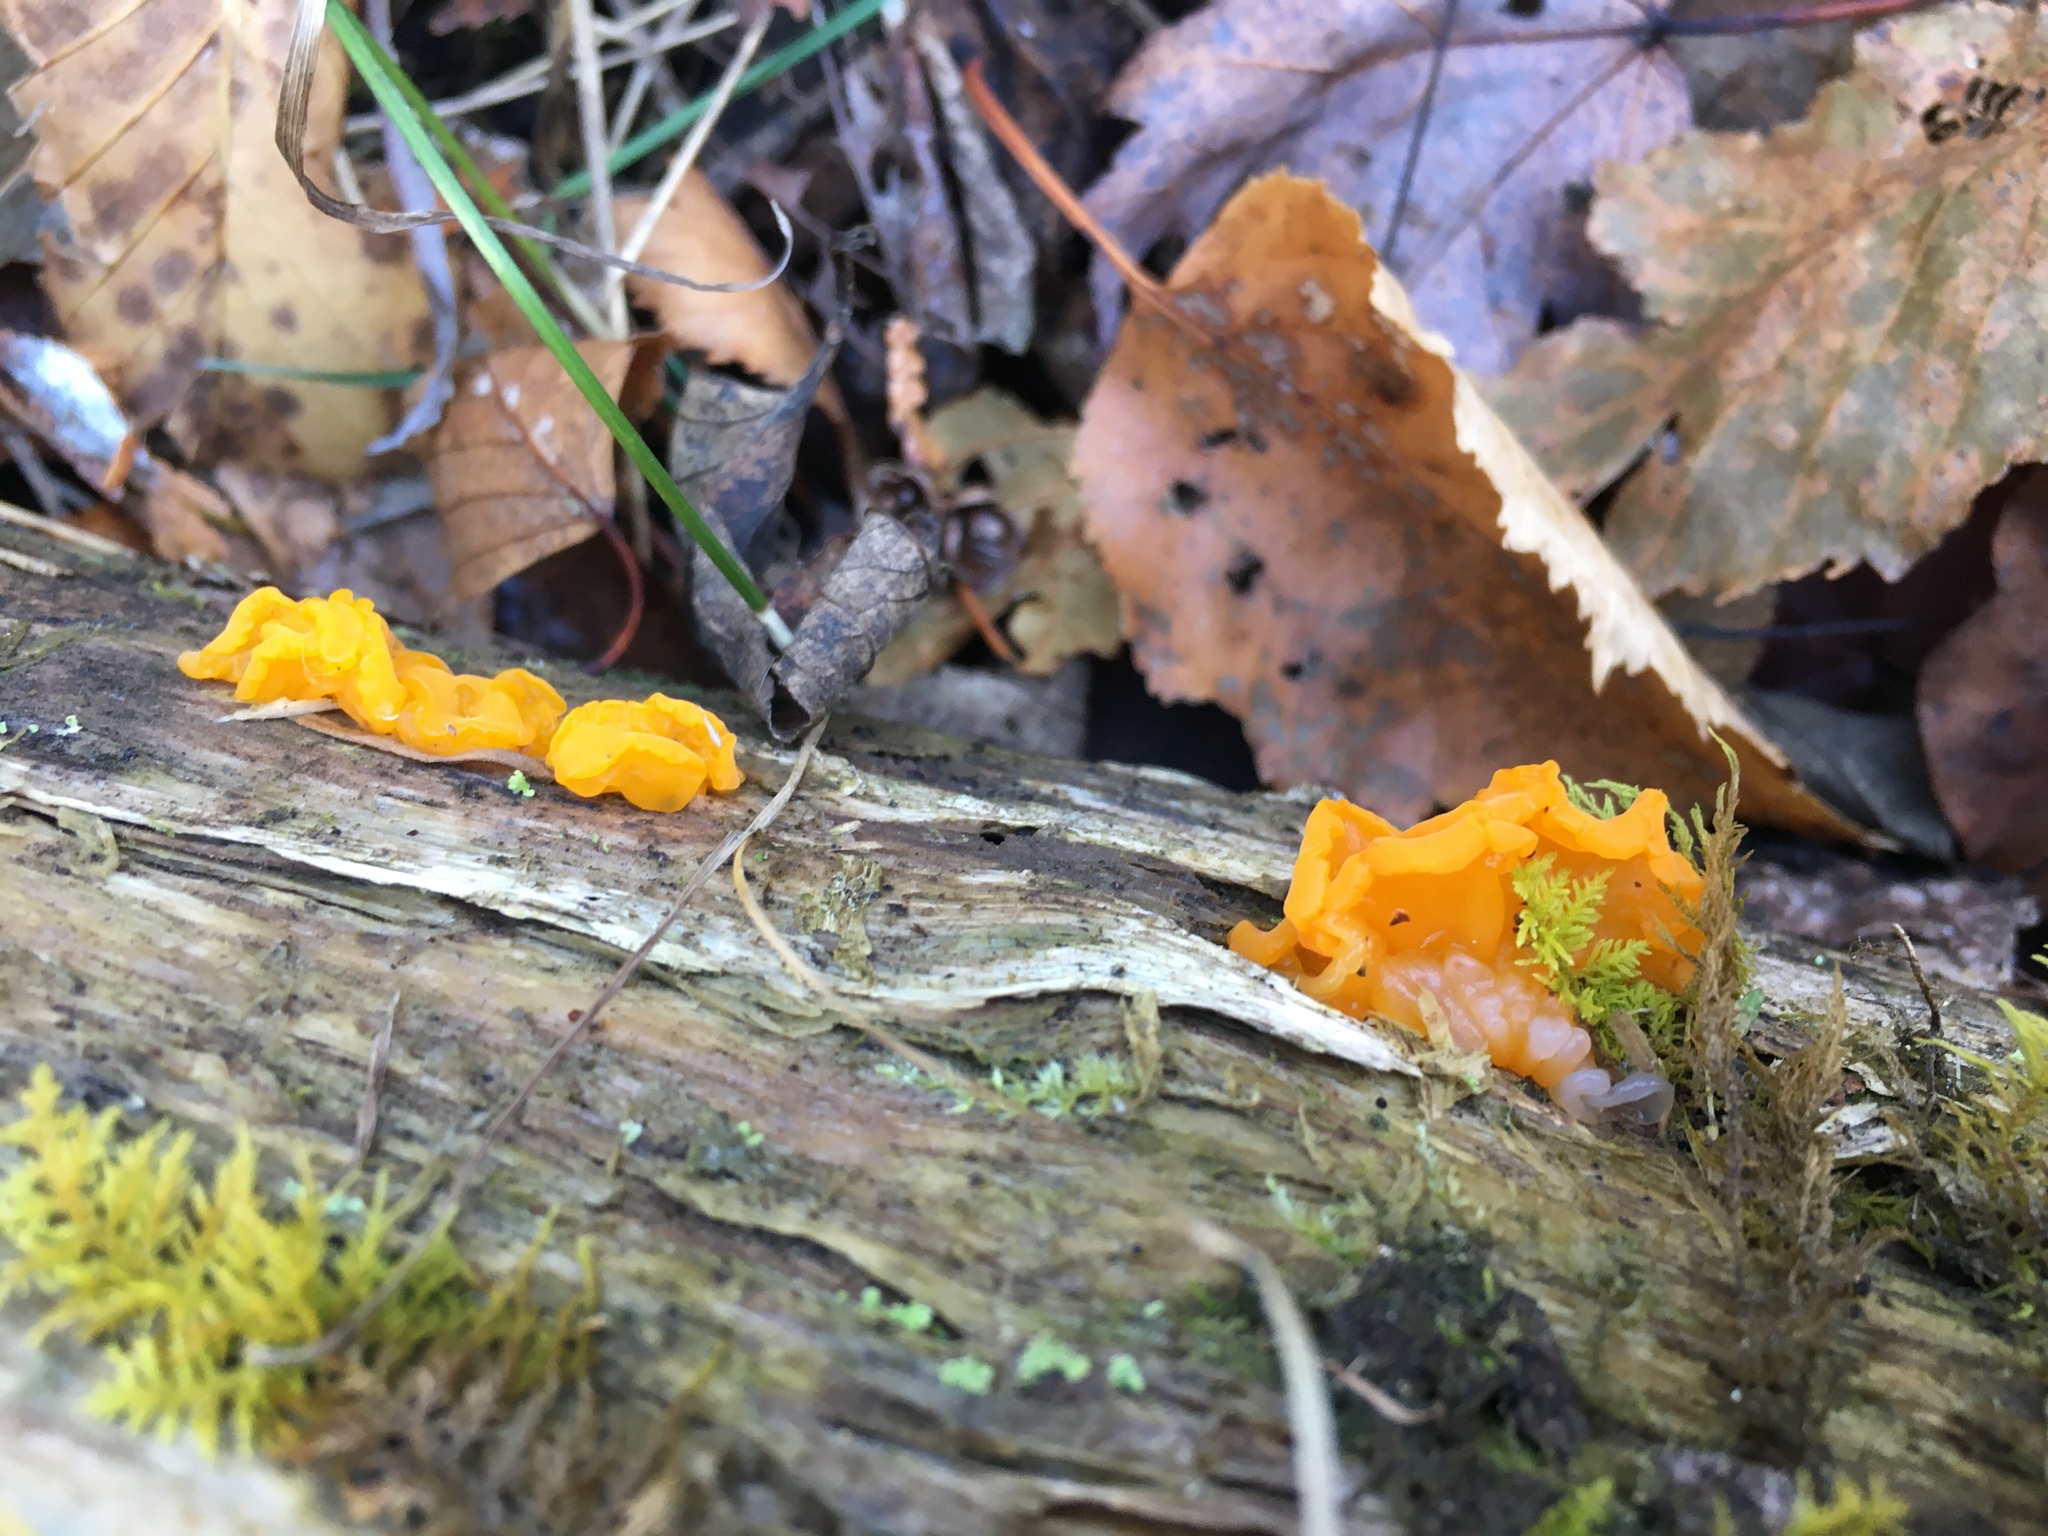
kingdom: Fungi
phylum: Basidiomycota
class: Dacrymycetes
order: Dacrymycetales
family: Dacrymycetaceae
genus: Dacrymyces
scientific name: Dacrymyces chrysospermus
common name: Orange jelly spot
